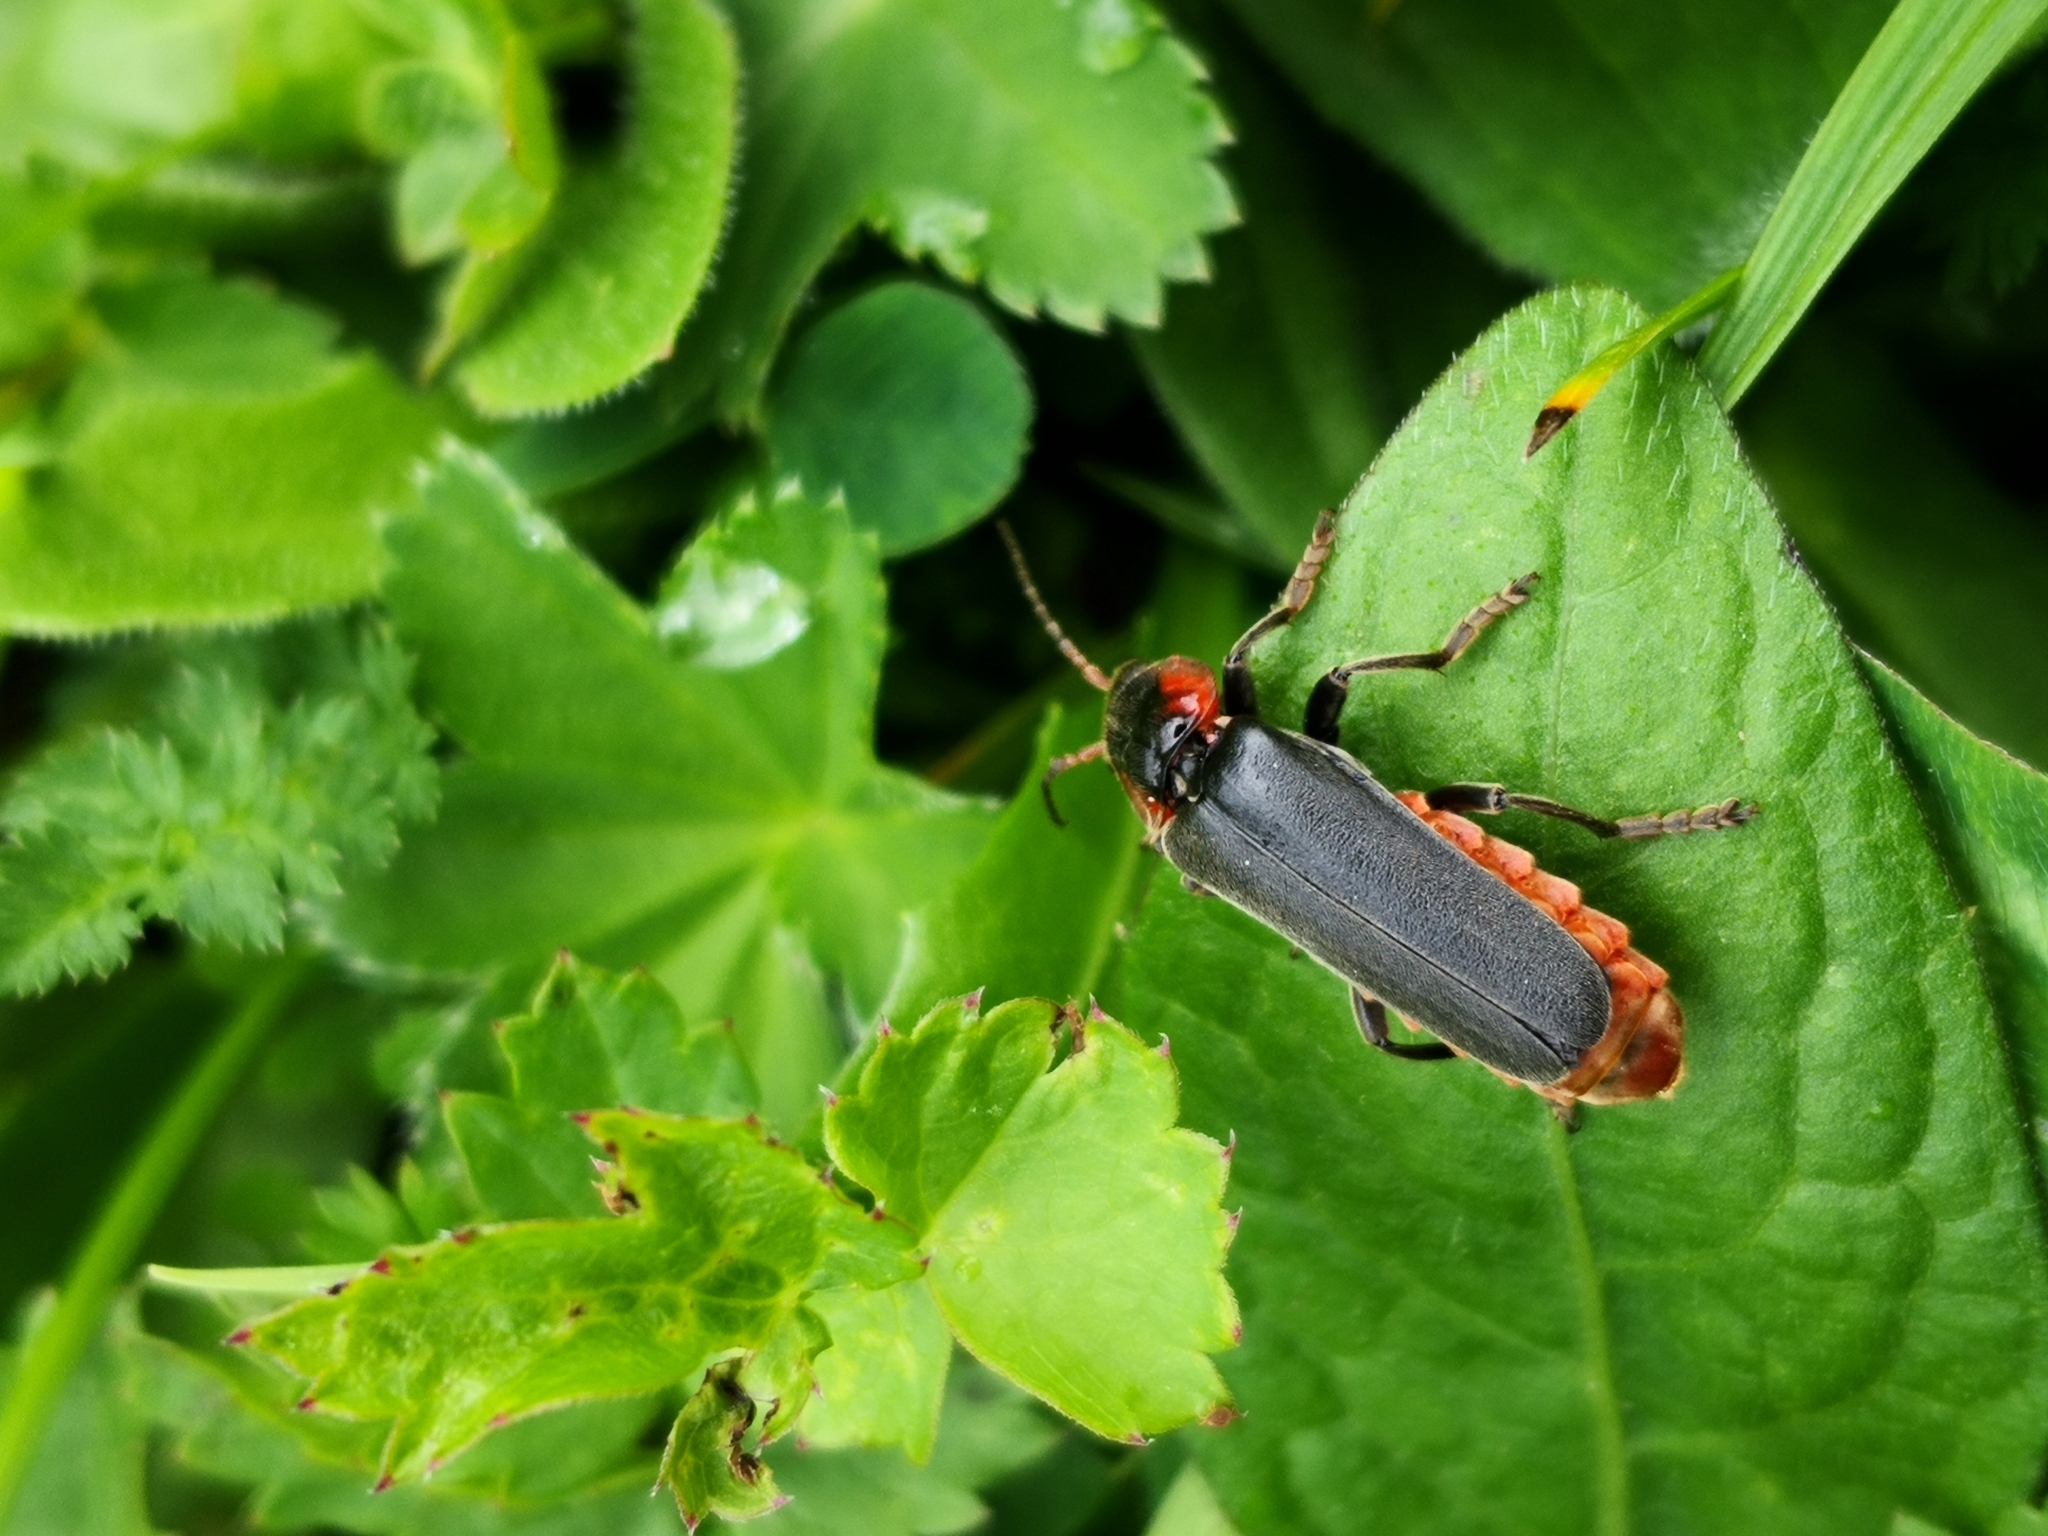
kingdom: Animalia
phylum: Arthropoda
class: Insecta
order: Coleoptera
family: Cantharidae
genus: Cantharis
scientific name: Cantharis fusca
